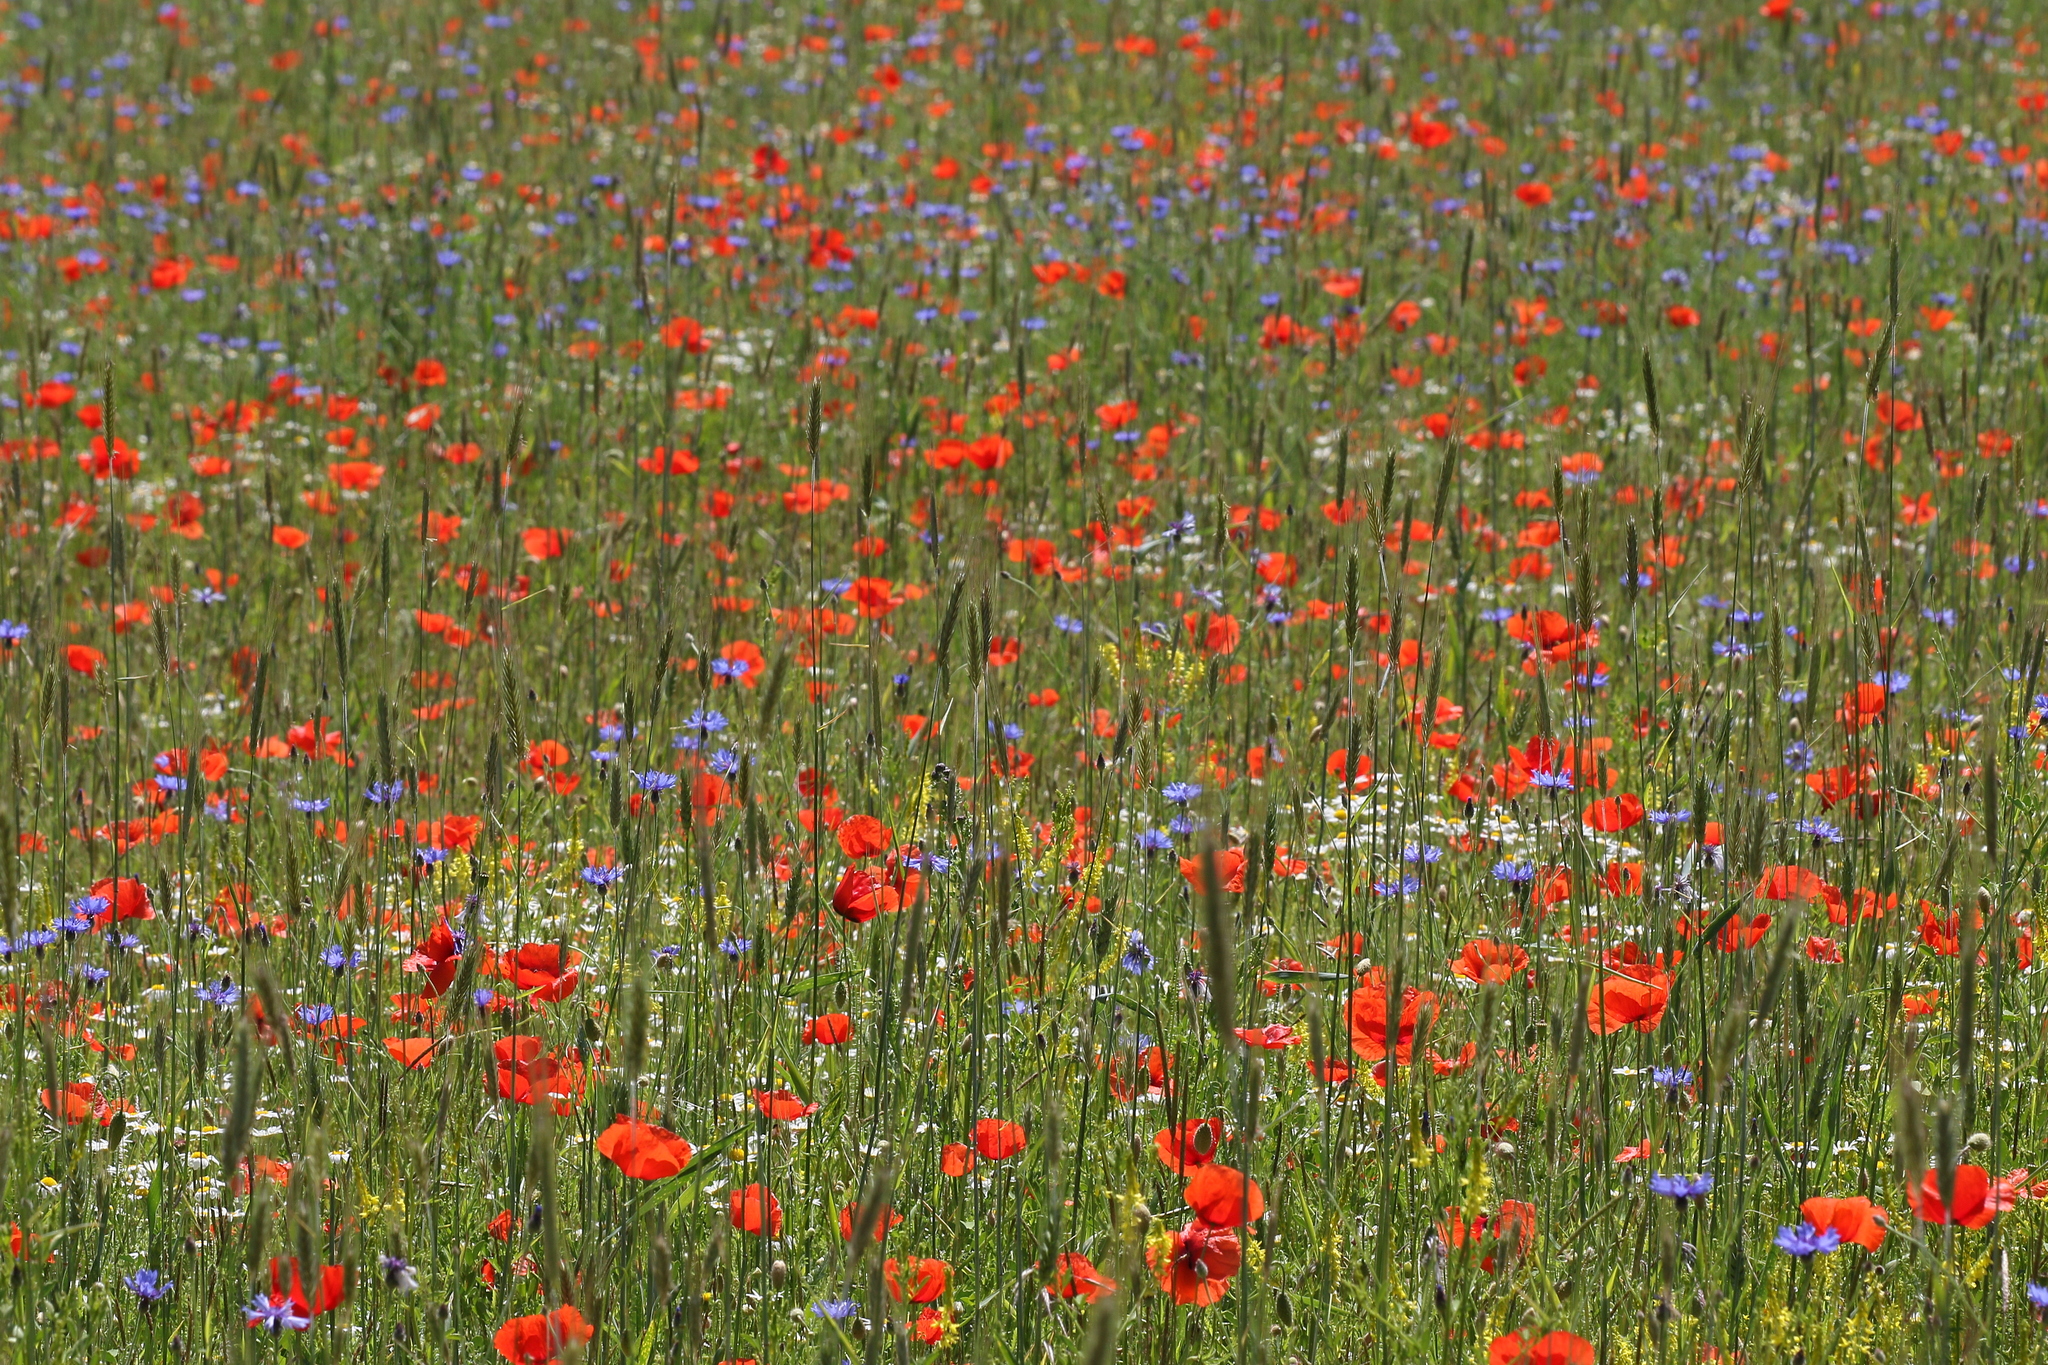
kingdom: Plantae
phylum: Tracheophyta
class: Magnoliopsida
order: Ranunculales
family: Papaveraceae
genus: Papaver
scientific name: Papaver rhoeas
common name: Corn poppy
